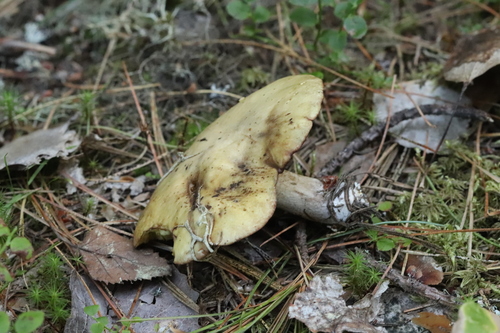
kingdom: Fungi
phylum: Basidiomycota
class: Agaricomycetes
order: Boletales
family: Suillaceae
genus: Suillus
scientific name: Suillus placidus
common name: Slippery white bolete
